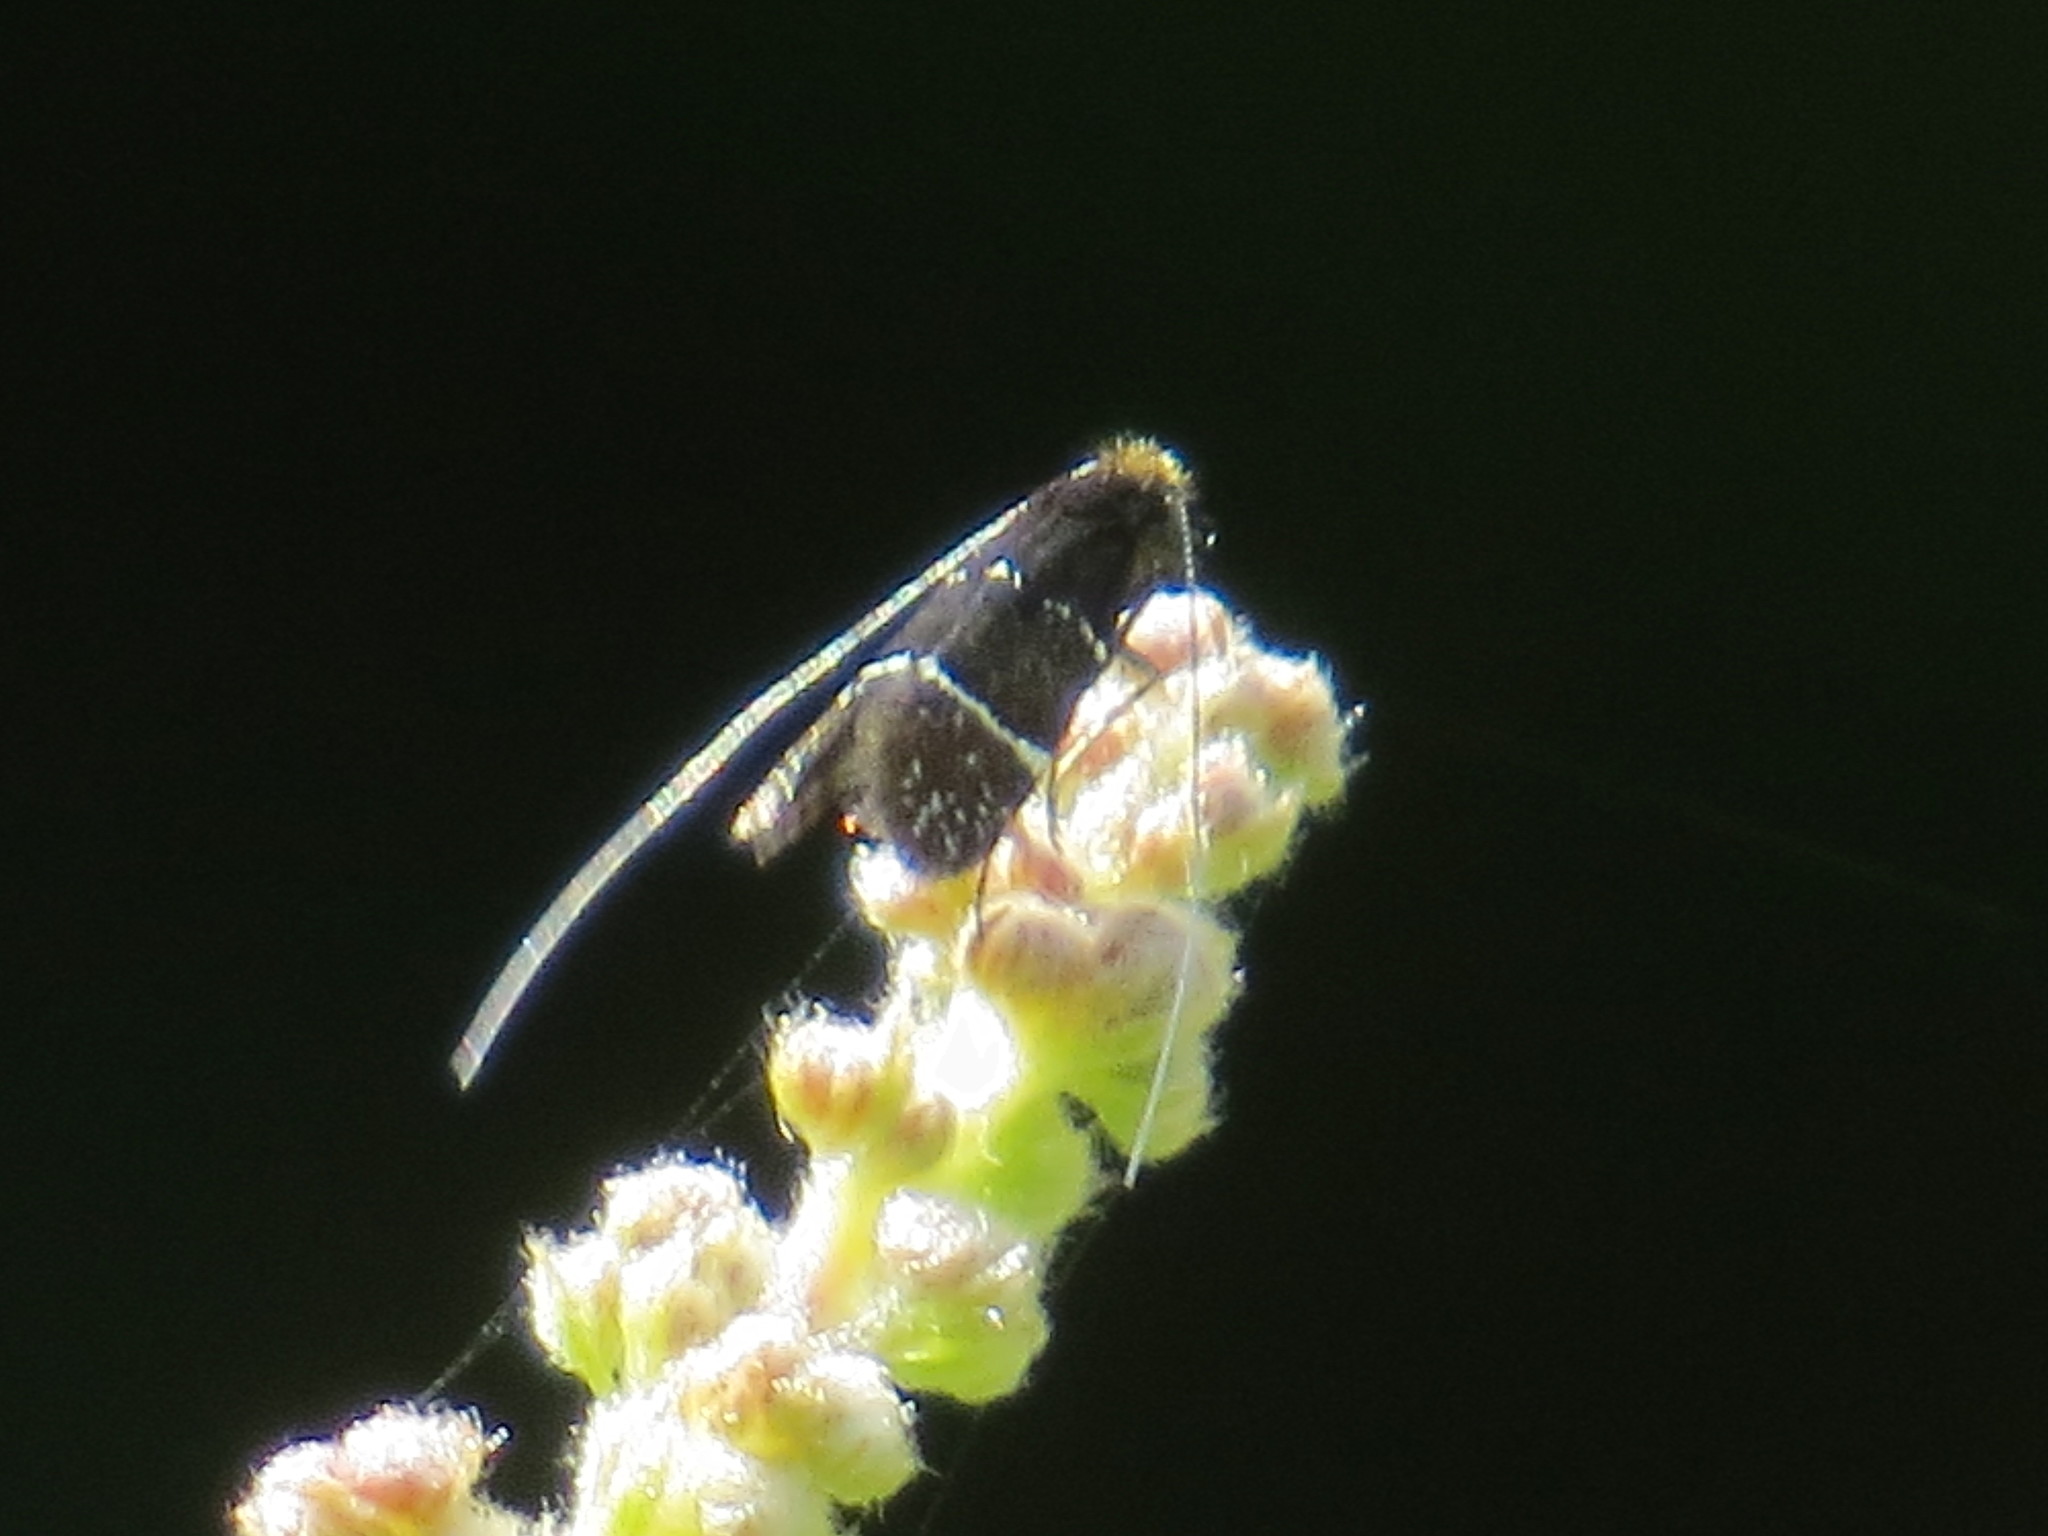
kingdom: Animalia
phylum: Arthropoda
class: Insecta
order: Lepidoptera
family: Adelidae
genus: Adela
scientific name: Adela septentrionella
